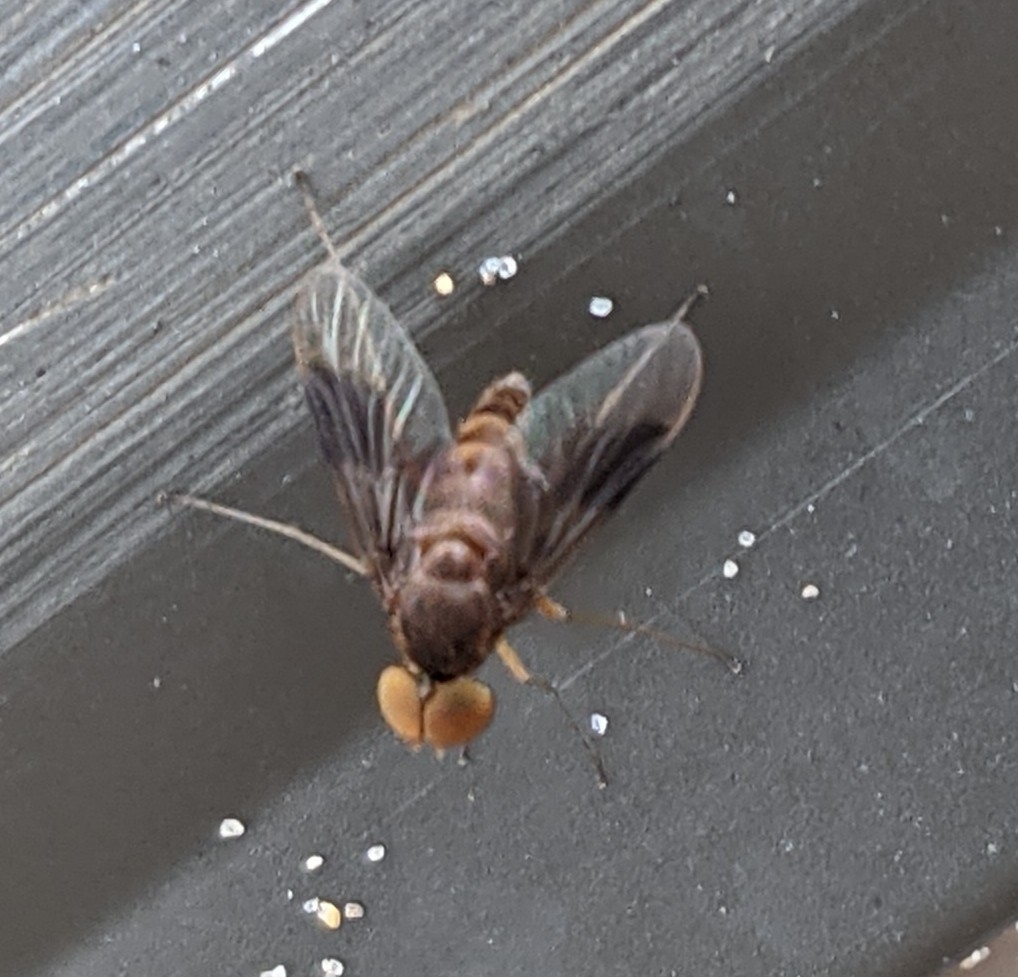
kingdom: Animalia
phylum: Arthropoda
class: Insecta
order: Diptera
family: Rhagionidae
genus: Chrysopilus
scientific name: Chrysopilus quadratus
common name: Quadrate snipe fly
